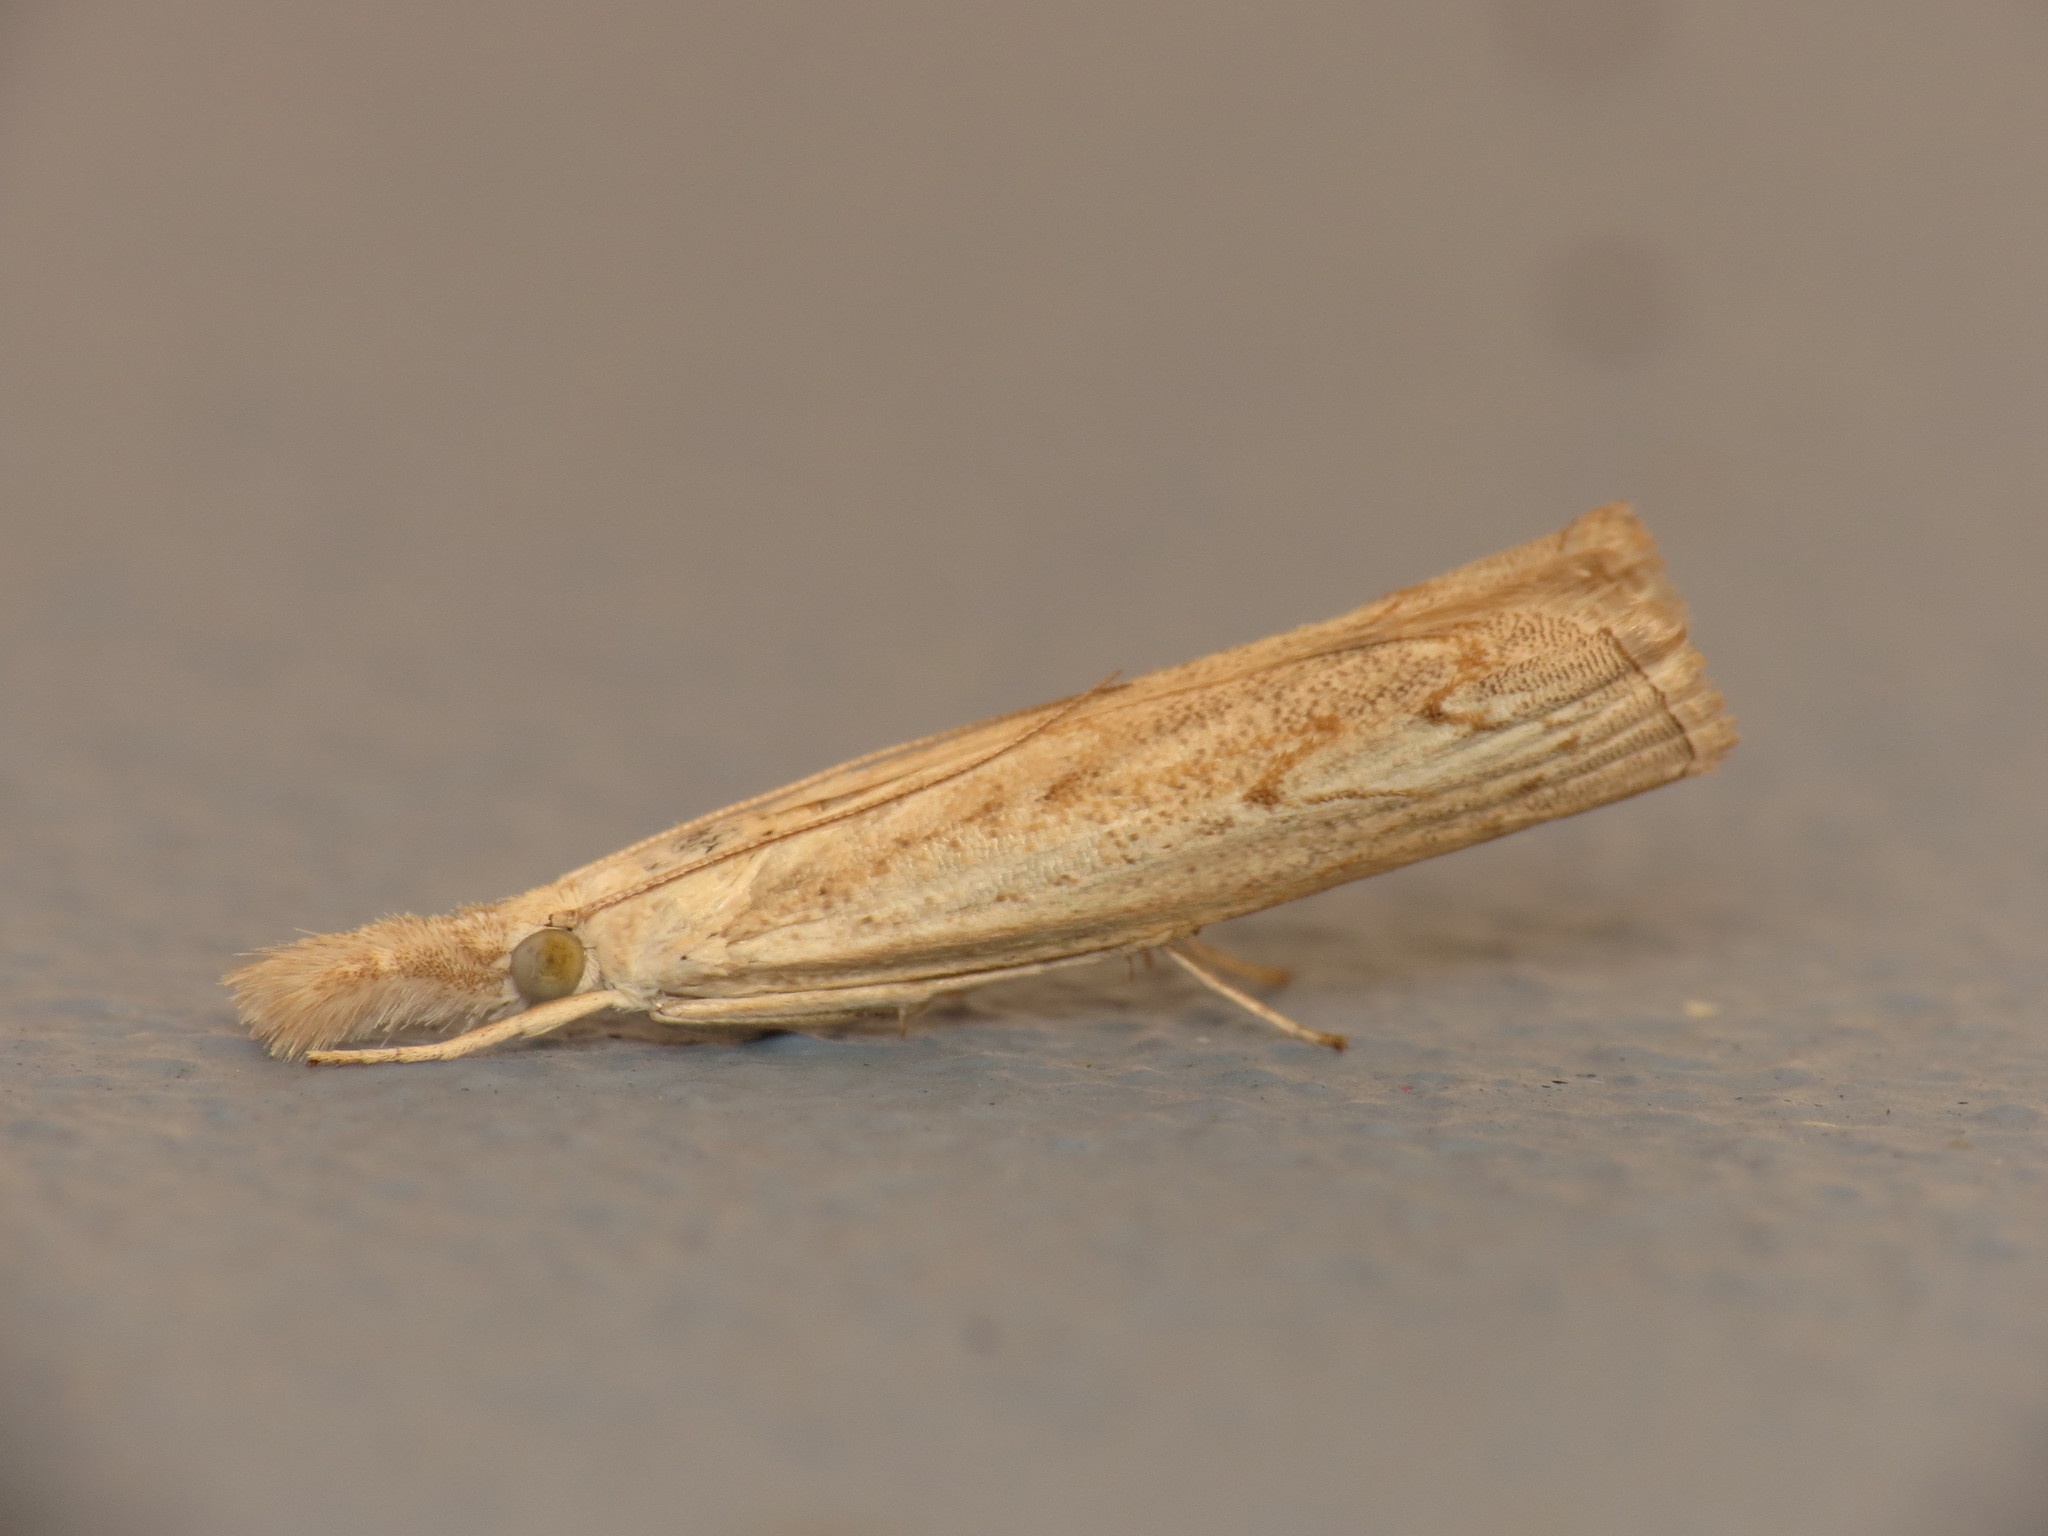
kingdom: Animalia
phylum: Arthropoda
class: Insecta
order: Lepidoptera
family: Crambidae
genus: Culladia
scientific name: Culladia cuneiferellus
